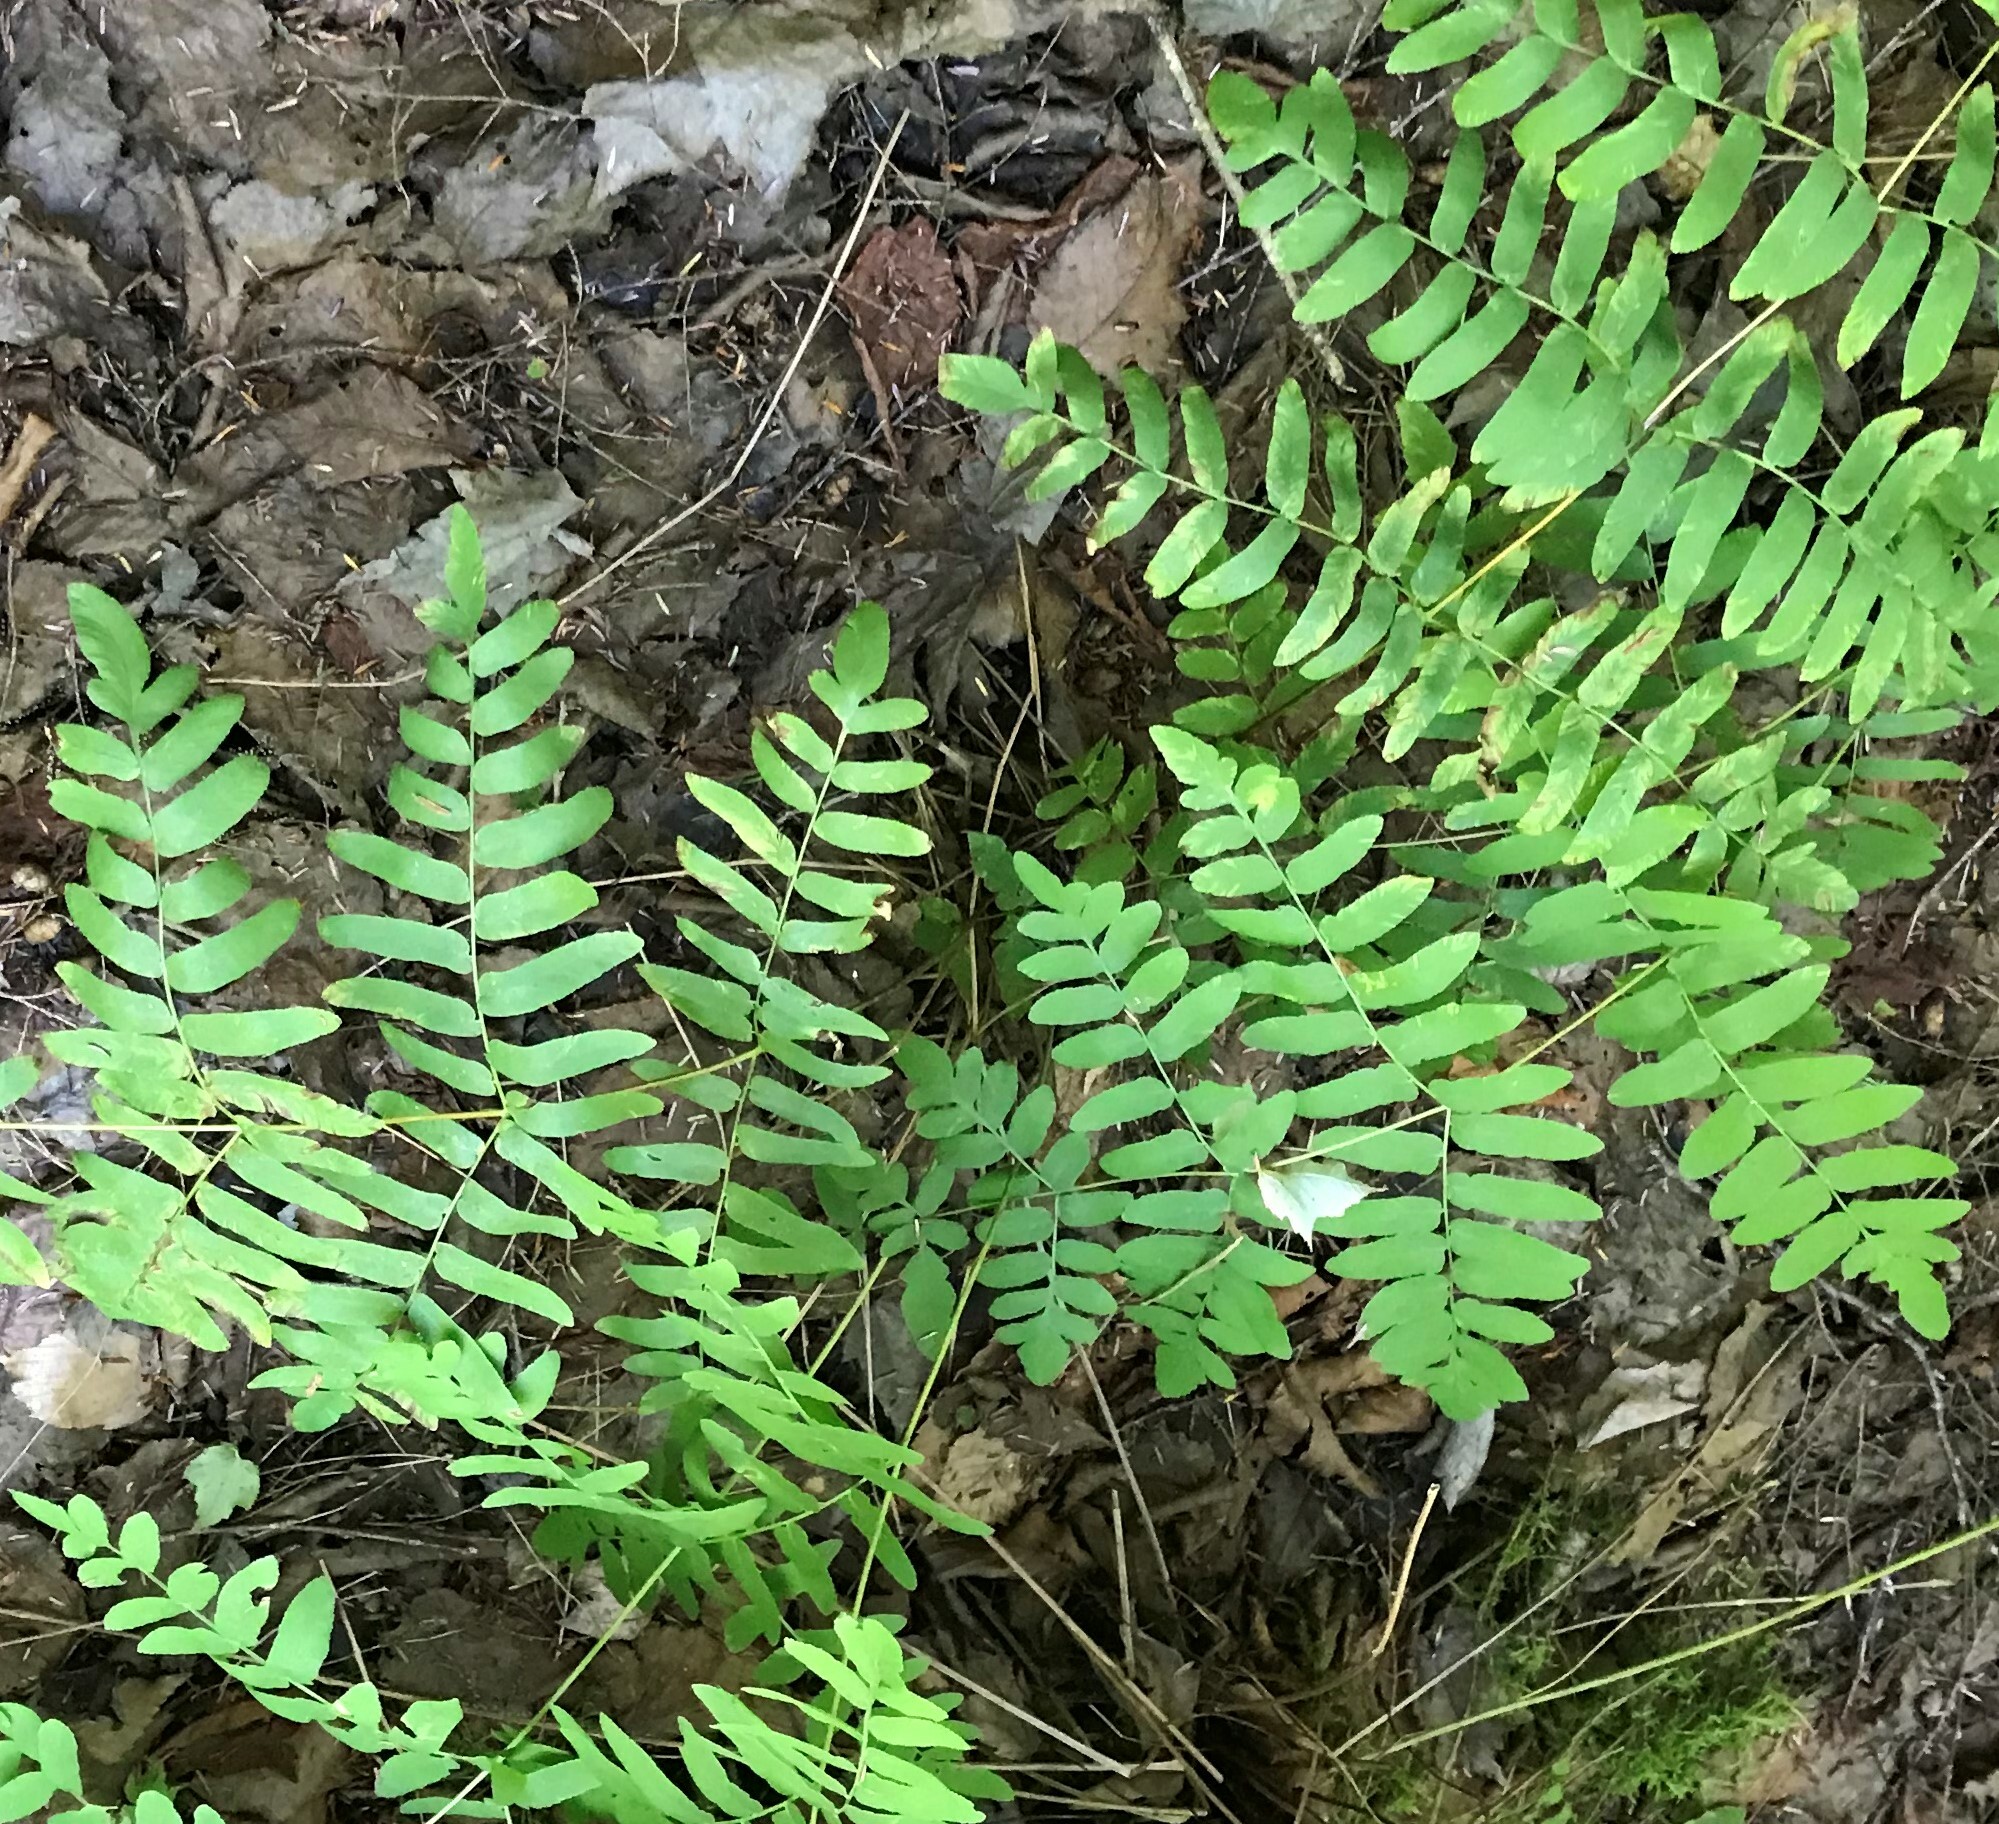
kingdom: Plantae
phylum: Tracheophyta
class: Polypodiopsida
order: Osmundales
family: Osmundaceae
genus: Osmunda
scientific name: Osmunda spectabilis
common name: American royal fern
